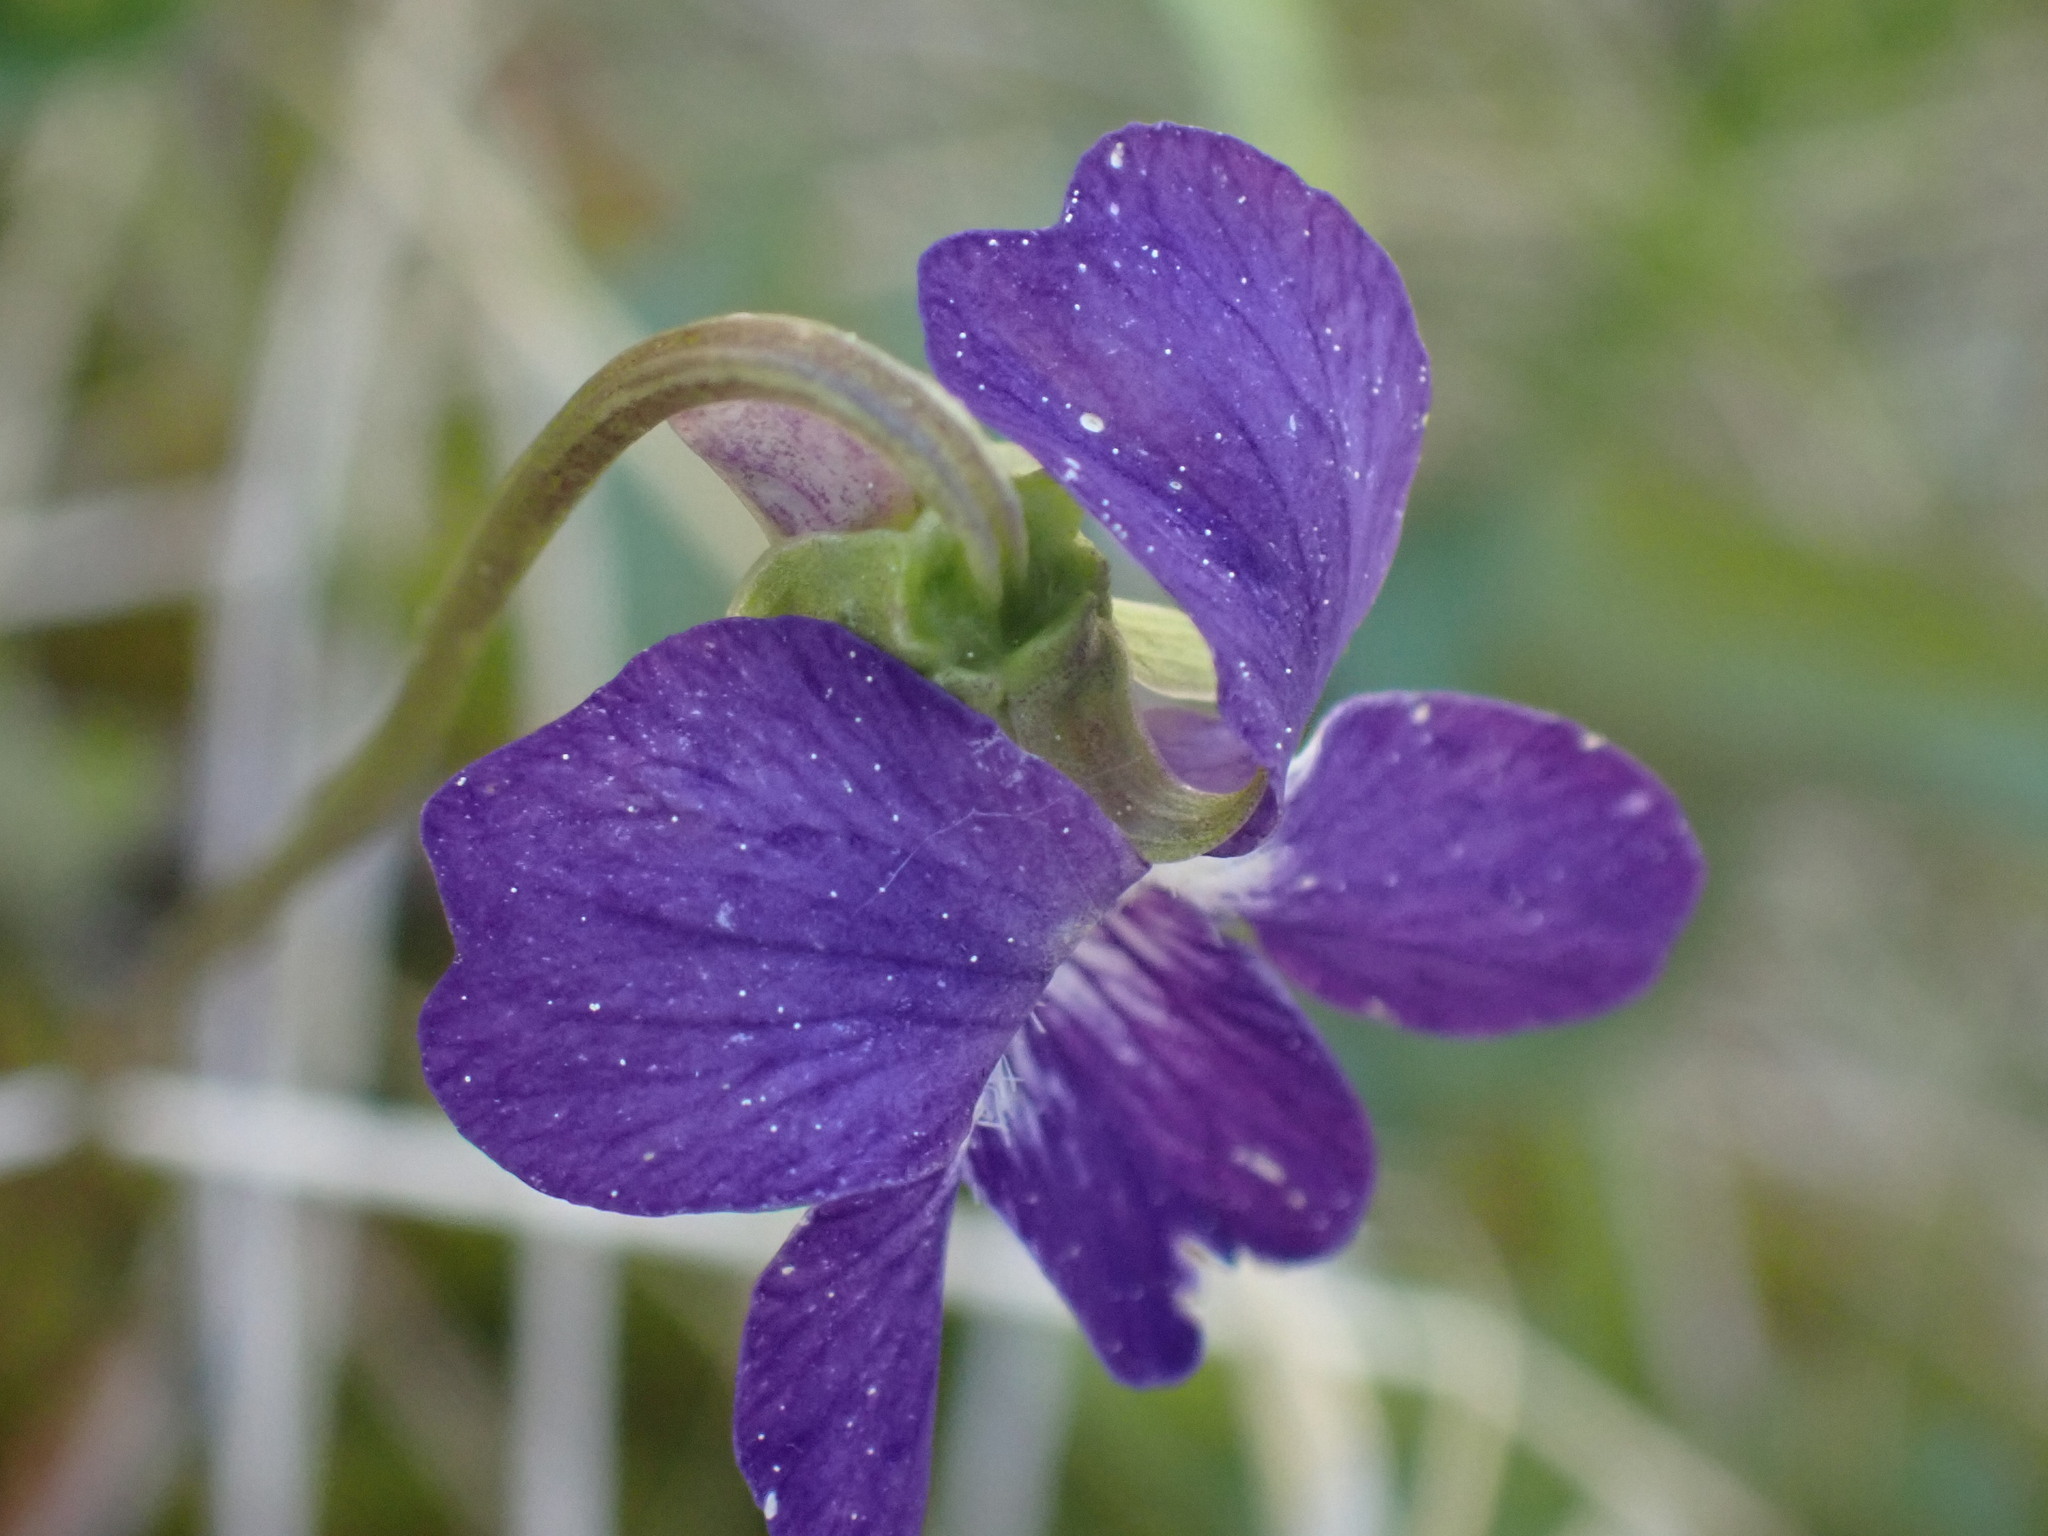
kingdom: Plantae
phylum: Tracheophyta
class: Magnoliopsida
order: Malpighiales
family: Violaceae
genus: Viola
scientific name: Viola nephrophylla
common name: Blue meadow violet
